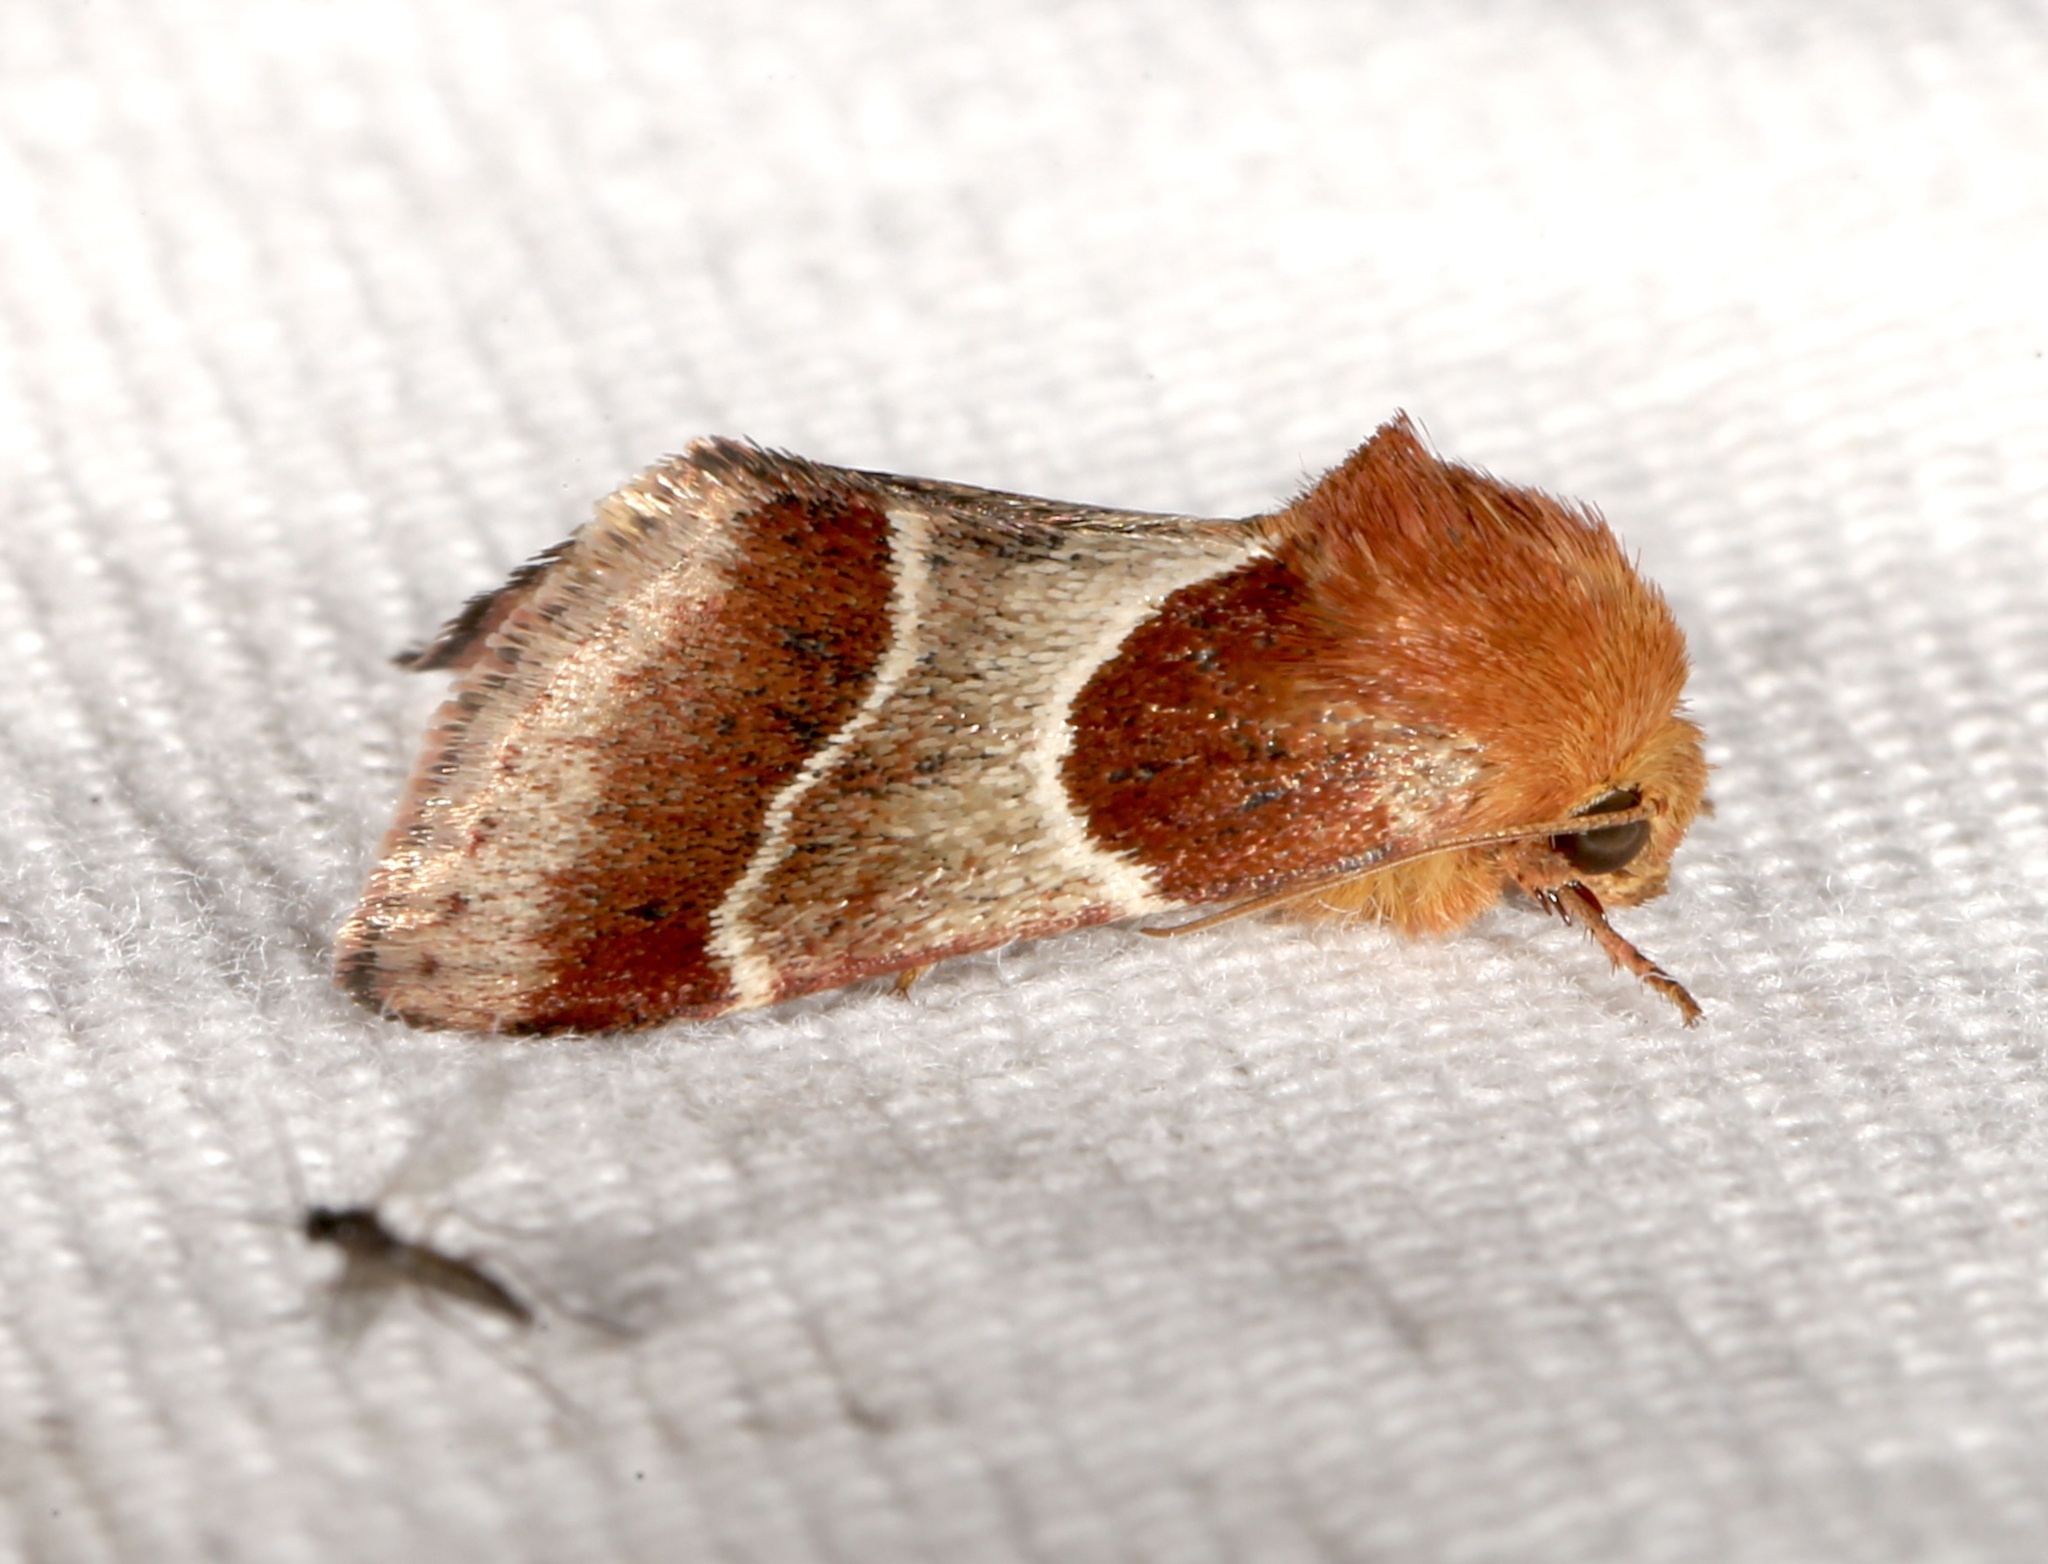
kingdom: Animalia
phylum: Arthropoda
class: Insecta
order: Lepidoptera
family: Noctuidae
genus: Schinia
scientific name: Schinia arcigera
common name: Arcigera flower moth
